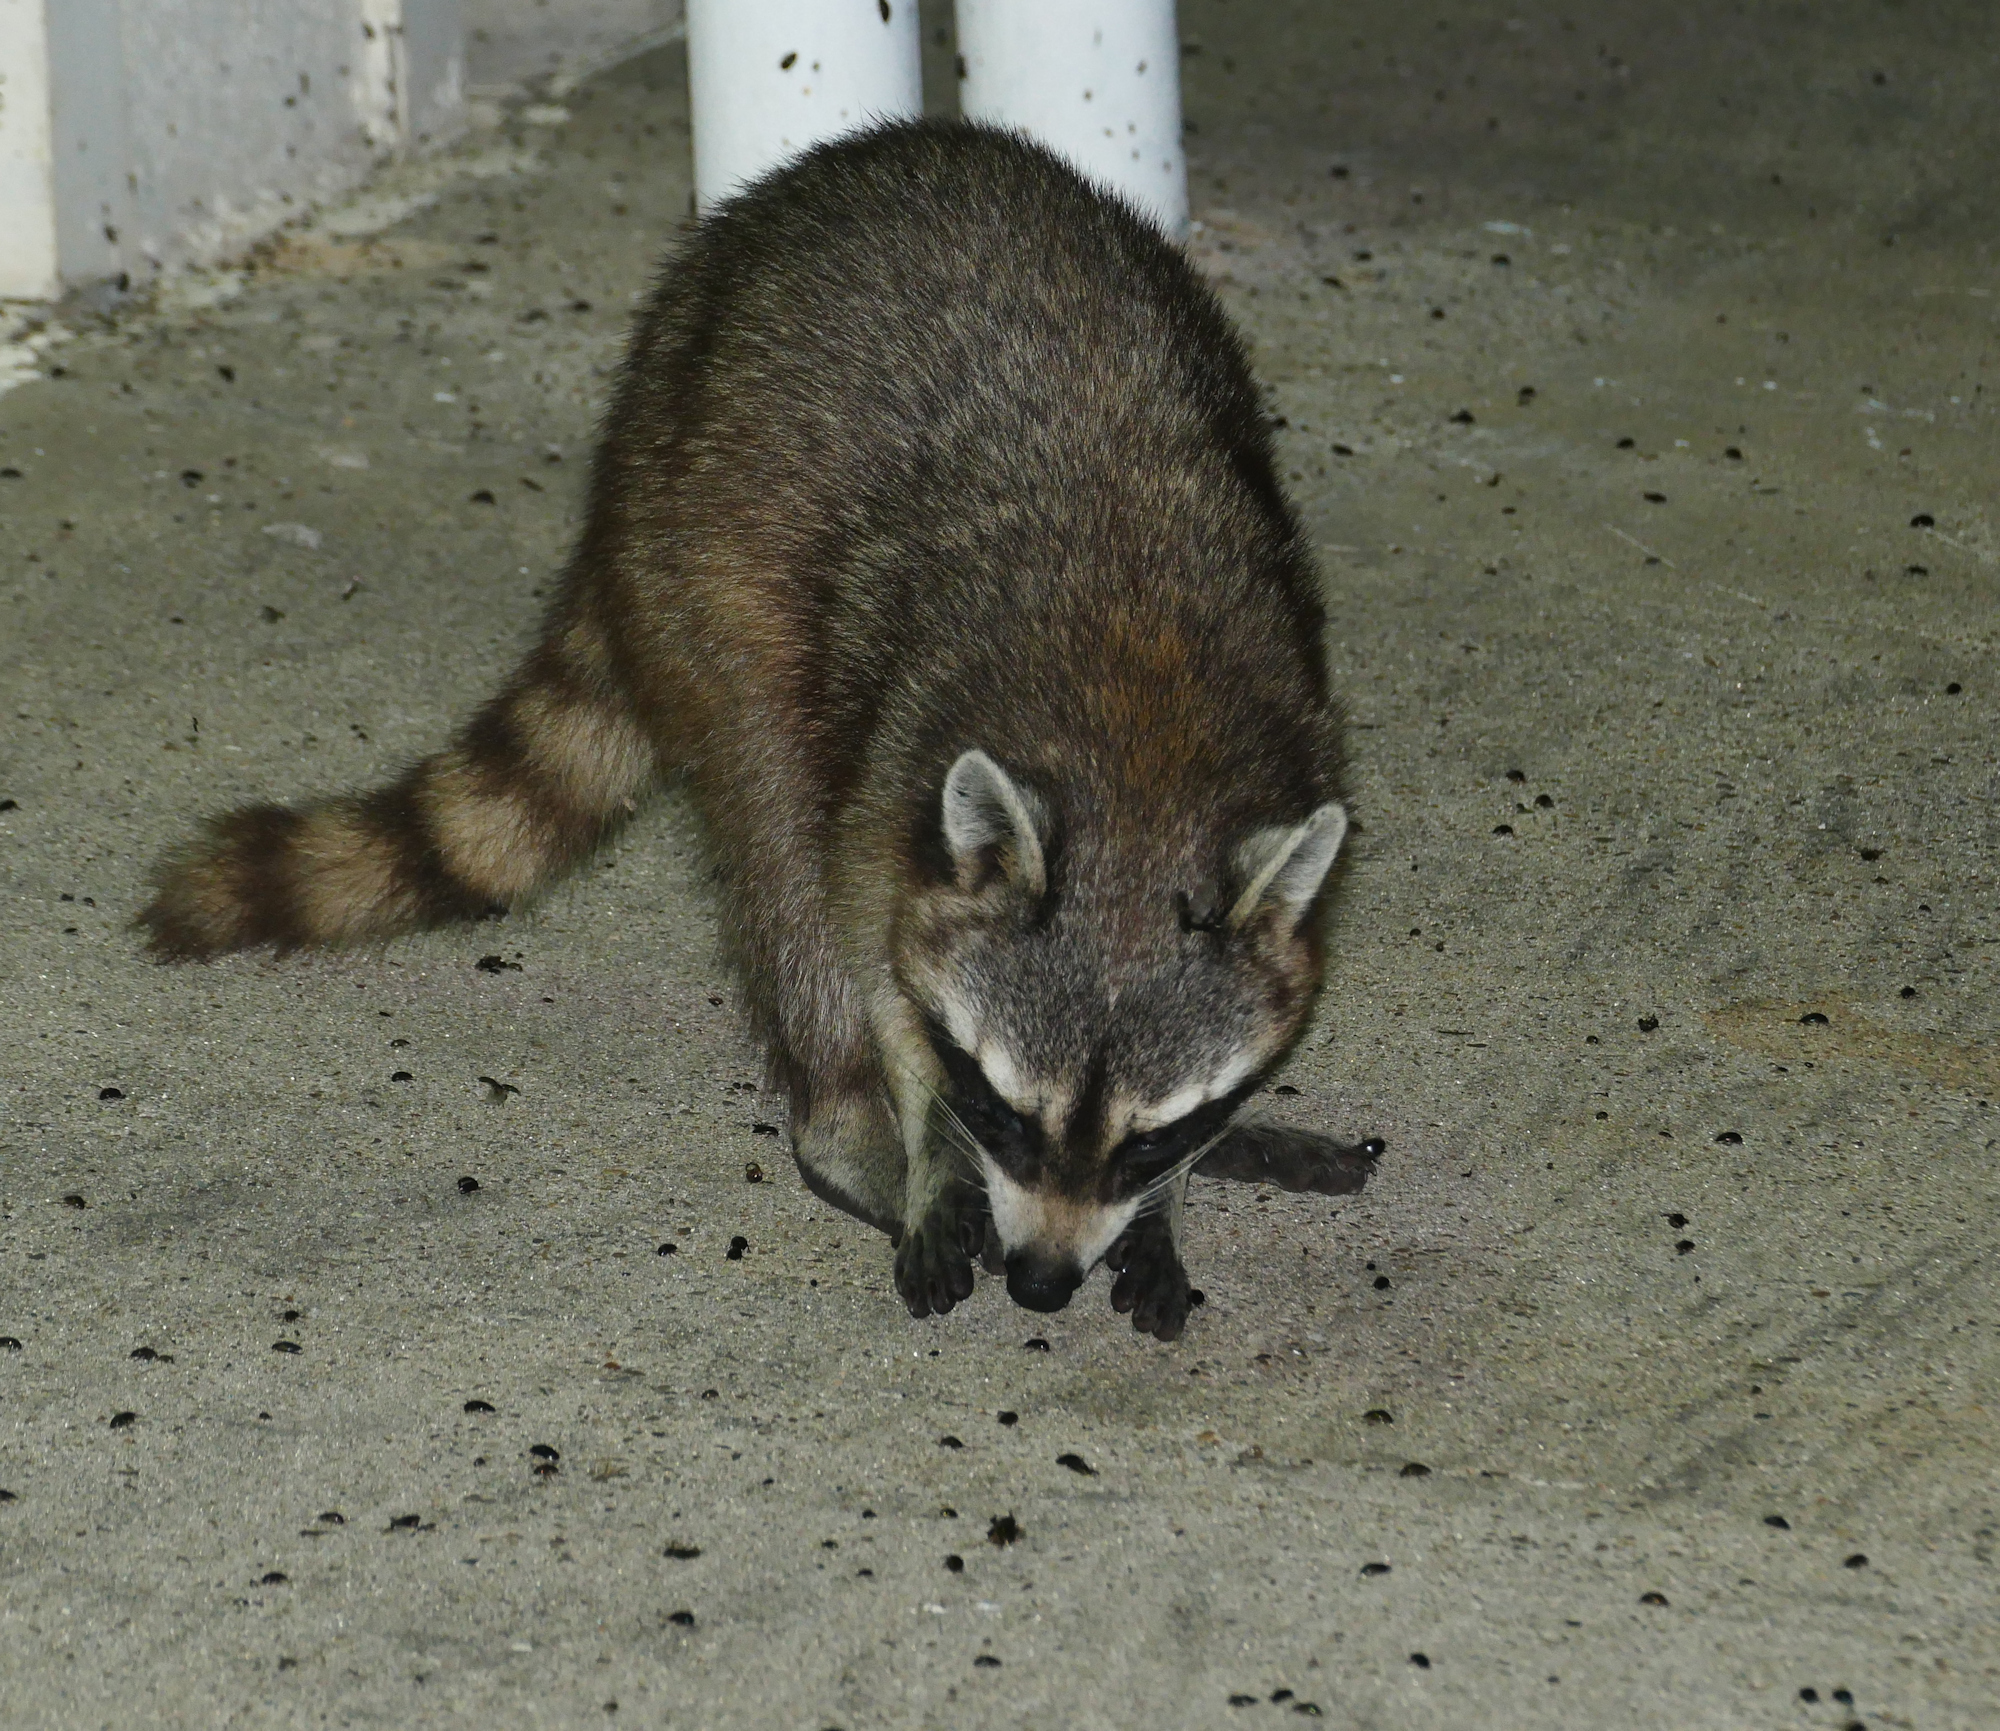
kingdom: Animalia
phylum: Chordata
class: Mammalia
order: Carnivora
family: Procyonidae
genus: Procyon
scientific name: Procyon lotor
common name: Raccoon
